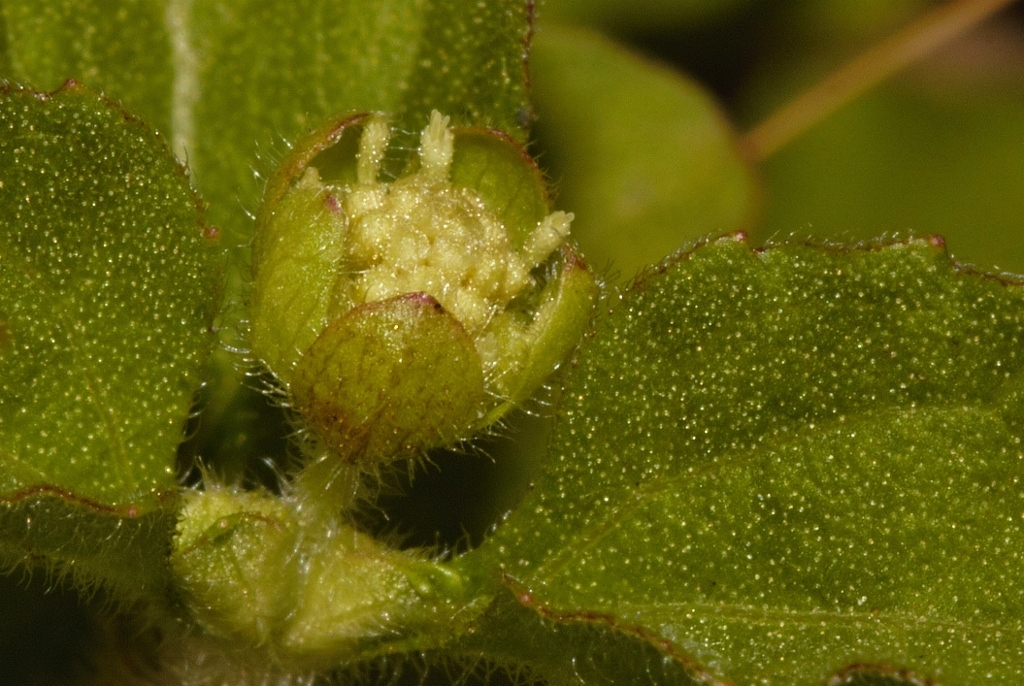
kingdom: Plantae
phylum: Tracheophyta
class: Magnoliopsida
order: Asterales
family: Asteraceae
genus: Acanthospermum
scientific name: Acanthospermum australe
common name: Paraguayan starbur
